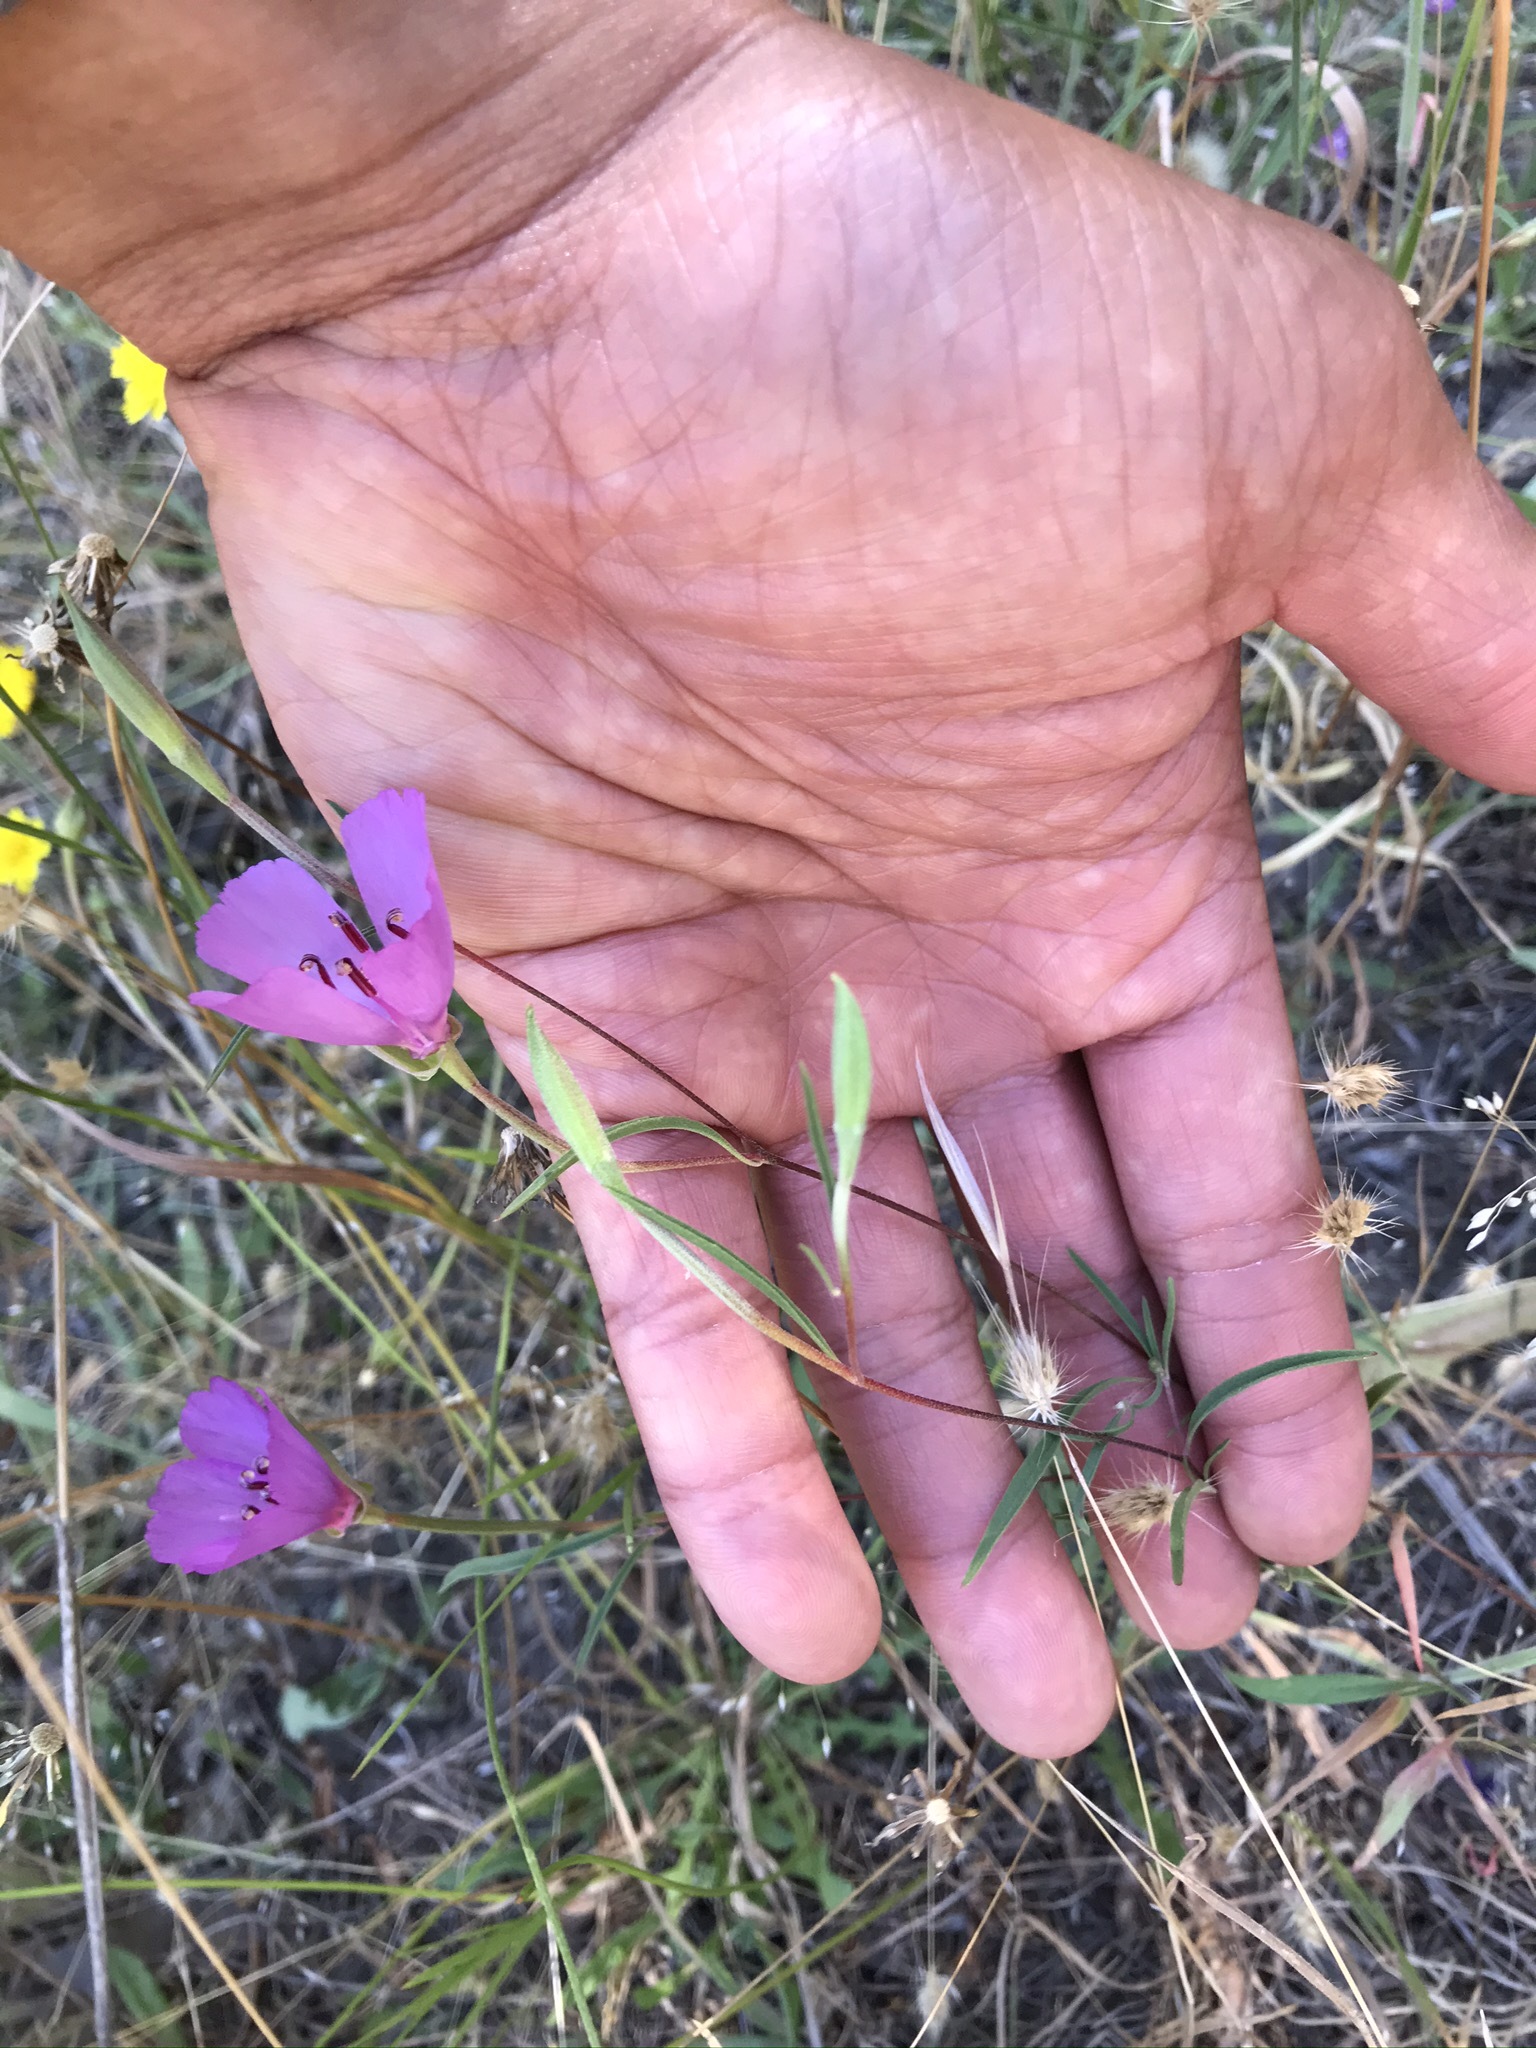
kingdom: Plantae
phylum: Tracheophyta
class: Magnoliopsida
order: Myrtales
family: Onagraceae
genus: Clarkia
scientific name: Clarkia rubicunda
